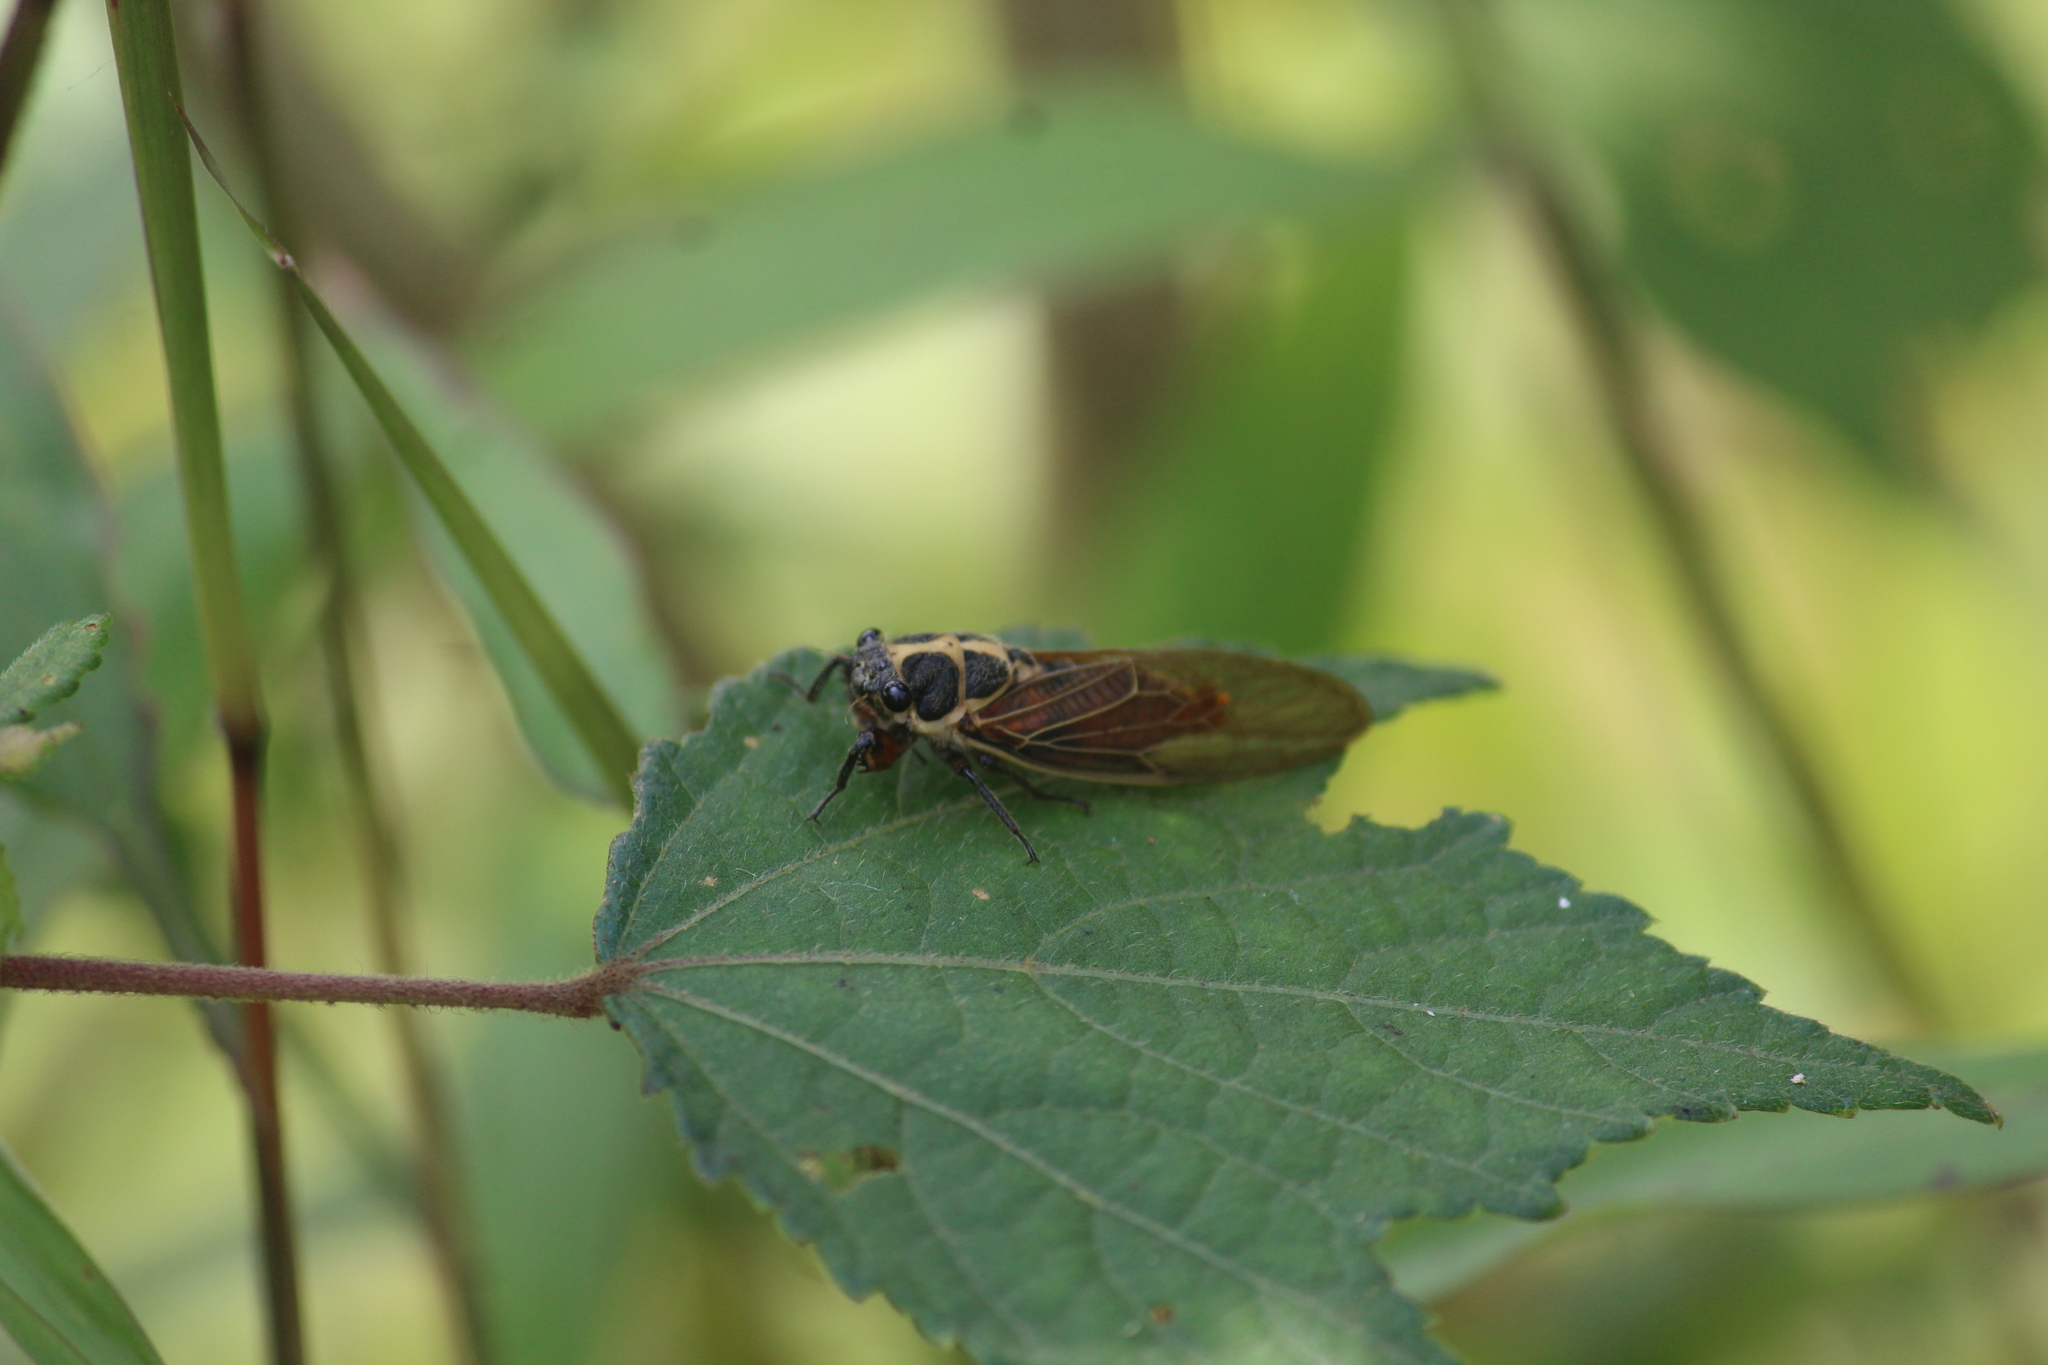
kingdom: Animalia
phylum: Arthropoda
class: Insecta
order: Hemiptera
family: Cicadidae
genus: Scieroptera
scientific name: Scieroptera splendidula
